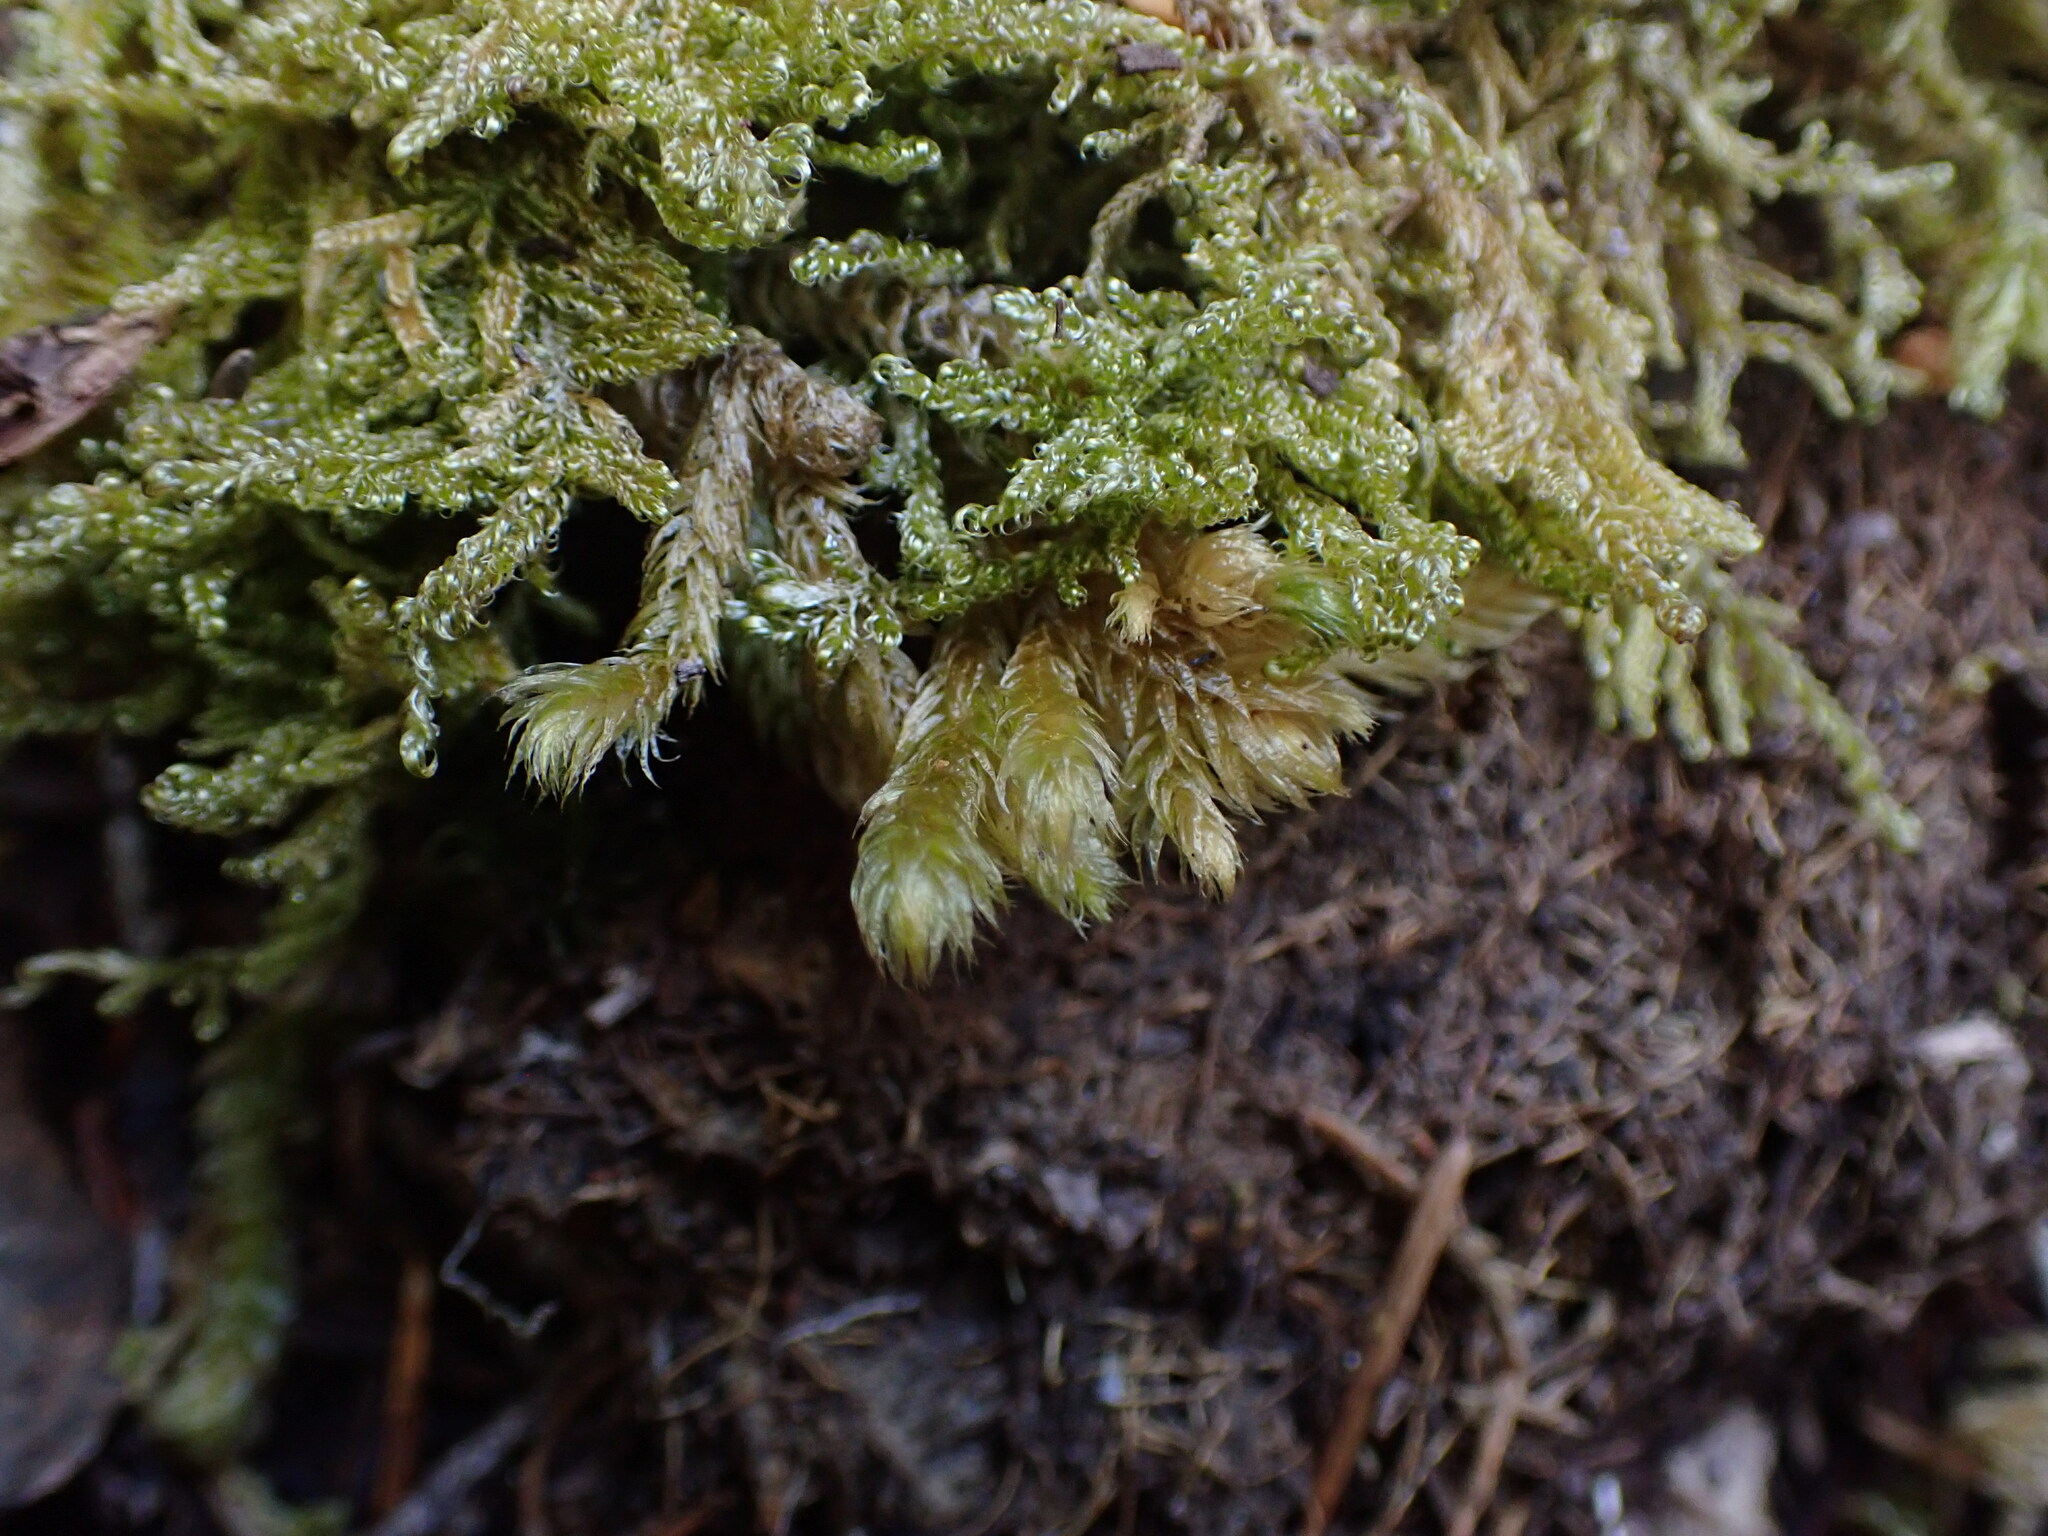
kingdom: Plantae
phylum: Bryophyta
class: Bryopsida
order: Hypnales
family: Hylocomiaceae
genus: Rhytidiopsis
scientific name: Rhytidiopsis robusta
